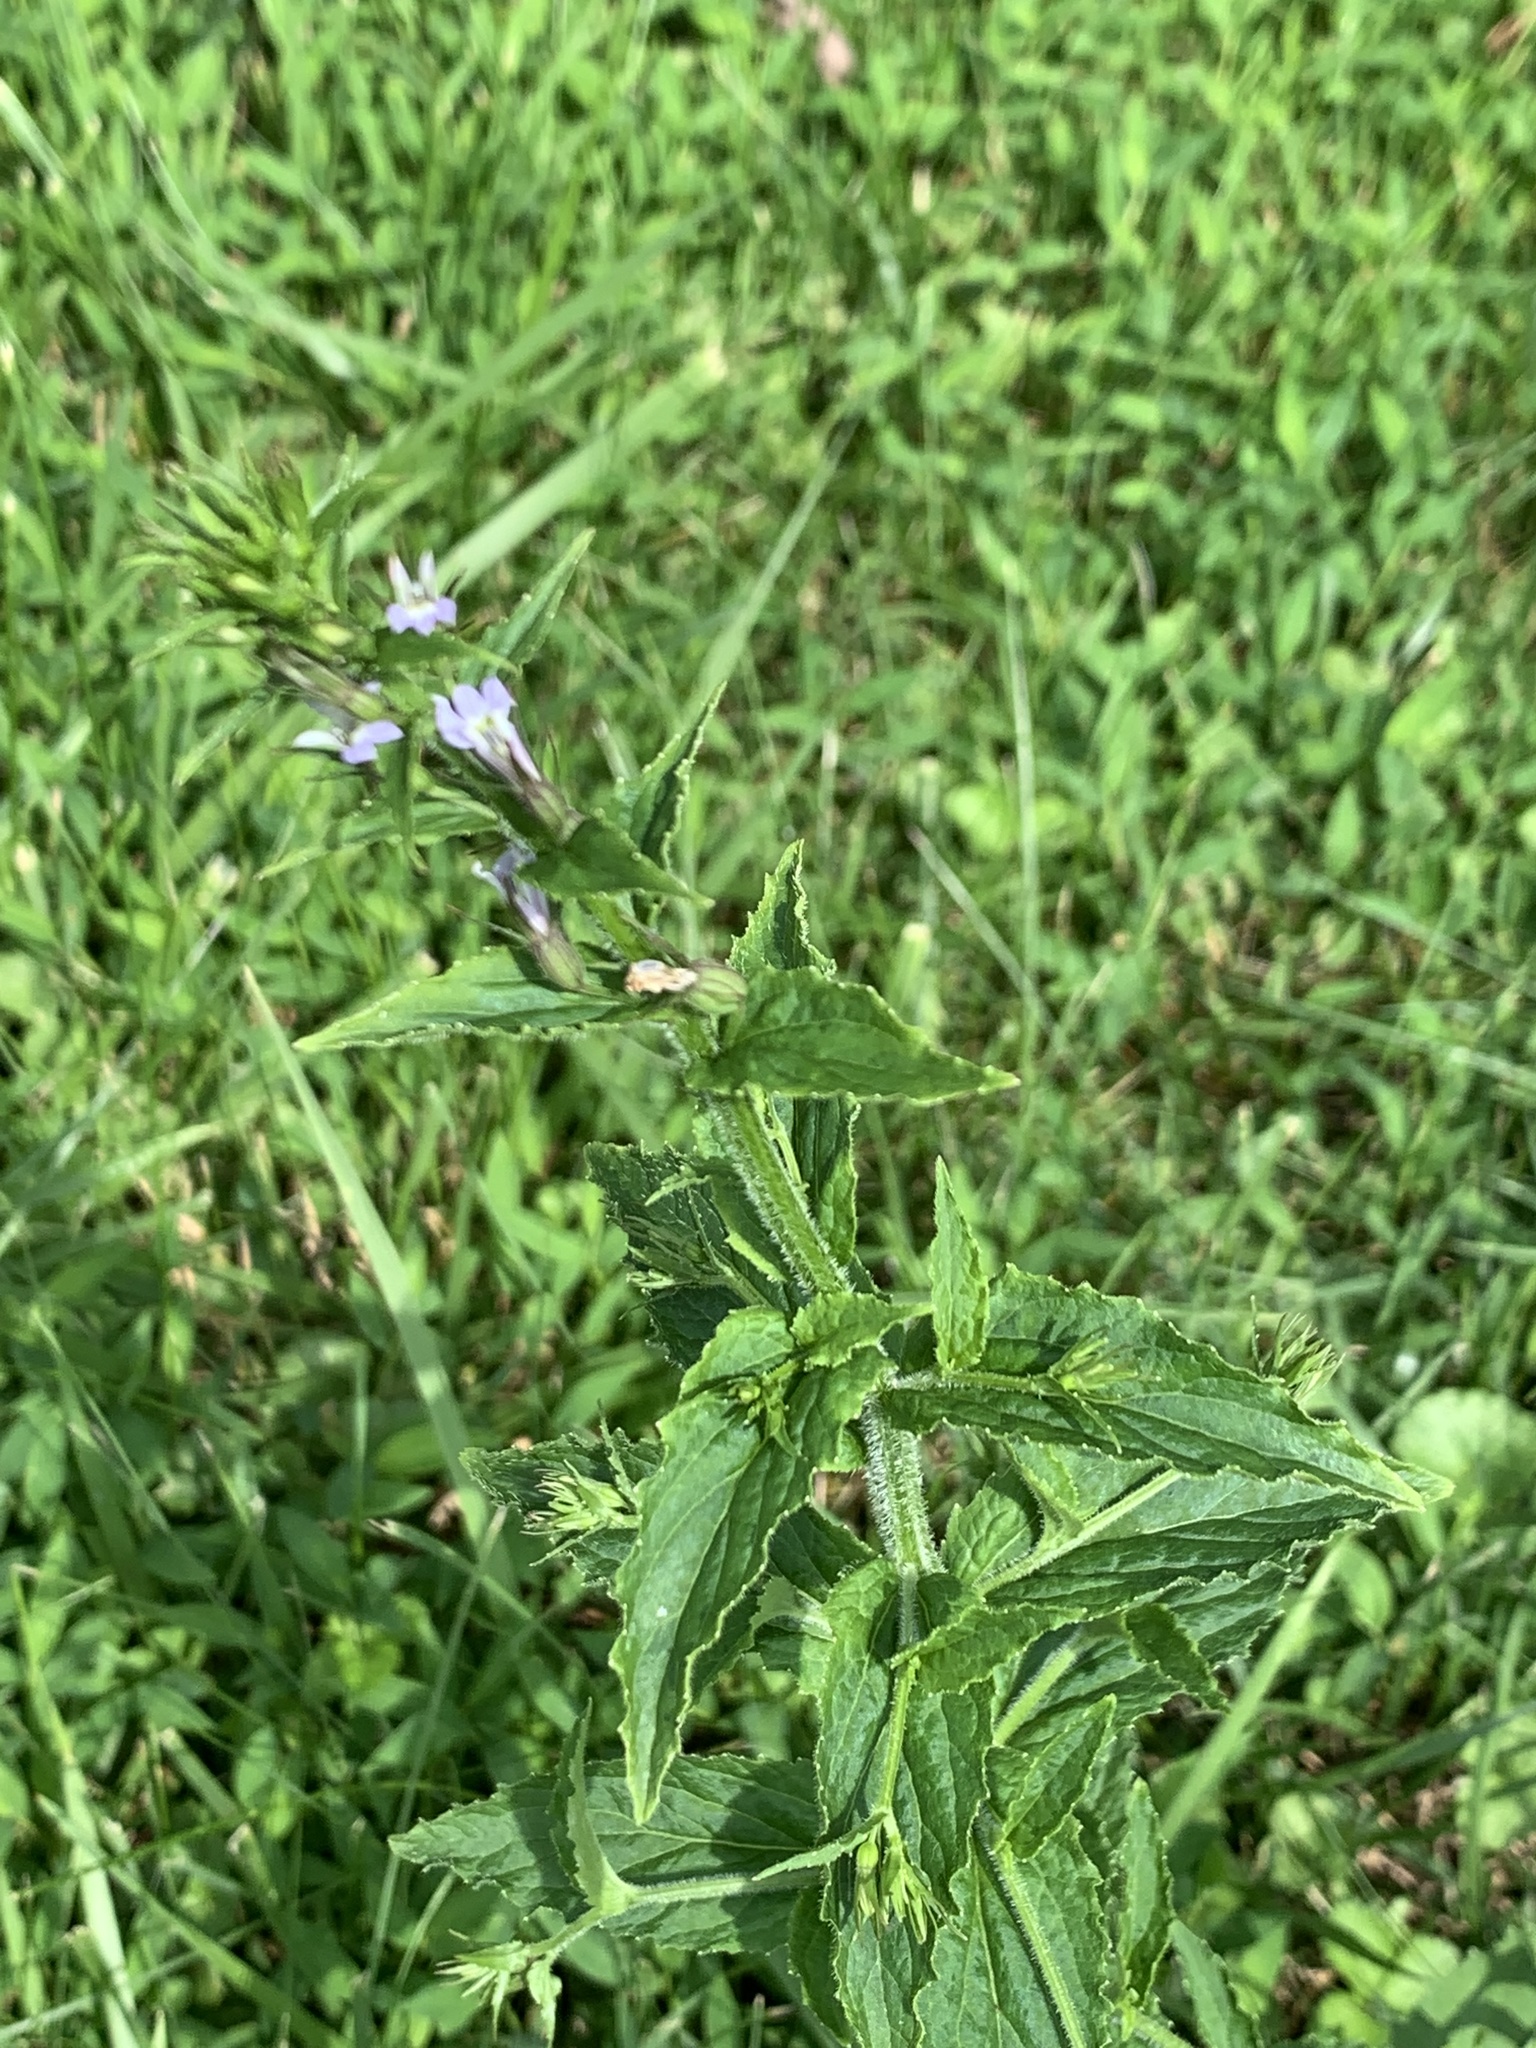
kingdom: Plantae
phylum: Tracheophyta
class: Magnoliopsida
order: Asterales
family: Campanulaceae
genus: Lobelia
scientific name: Lobelia inflata
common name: Indian tobacco
